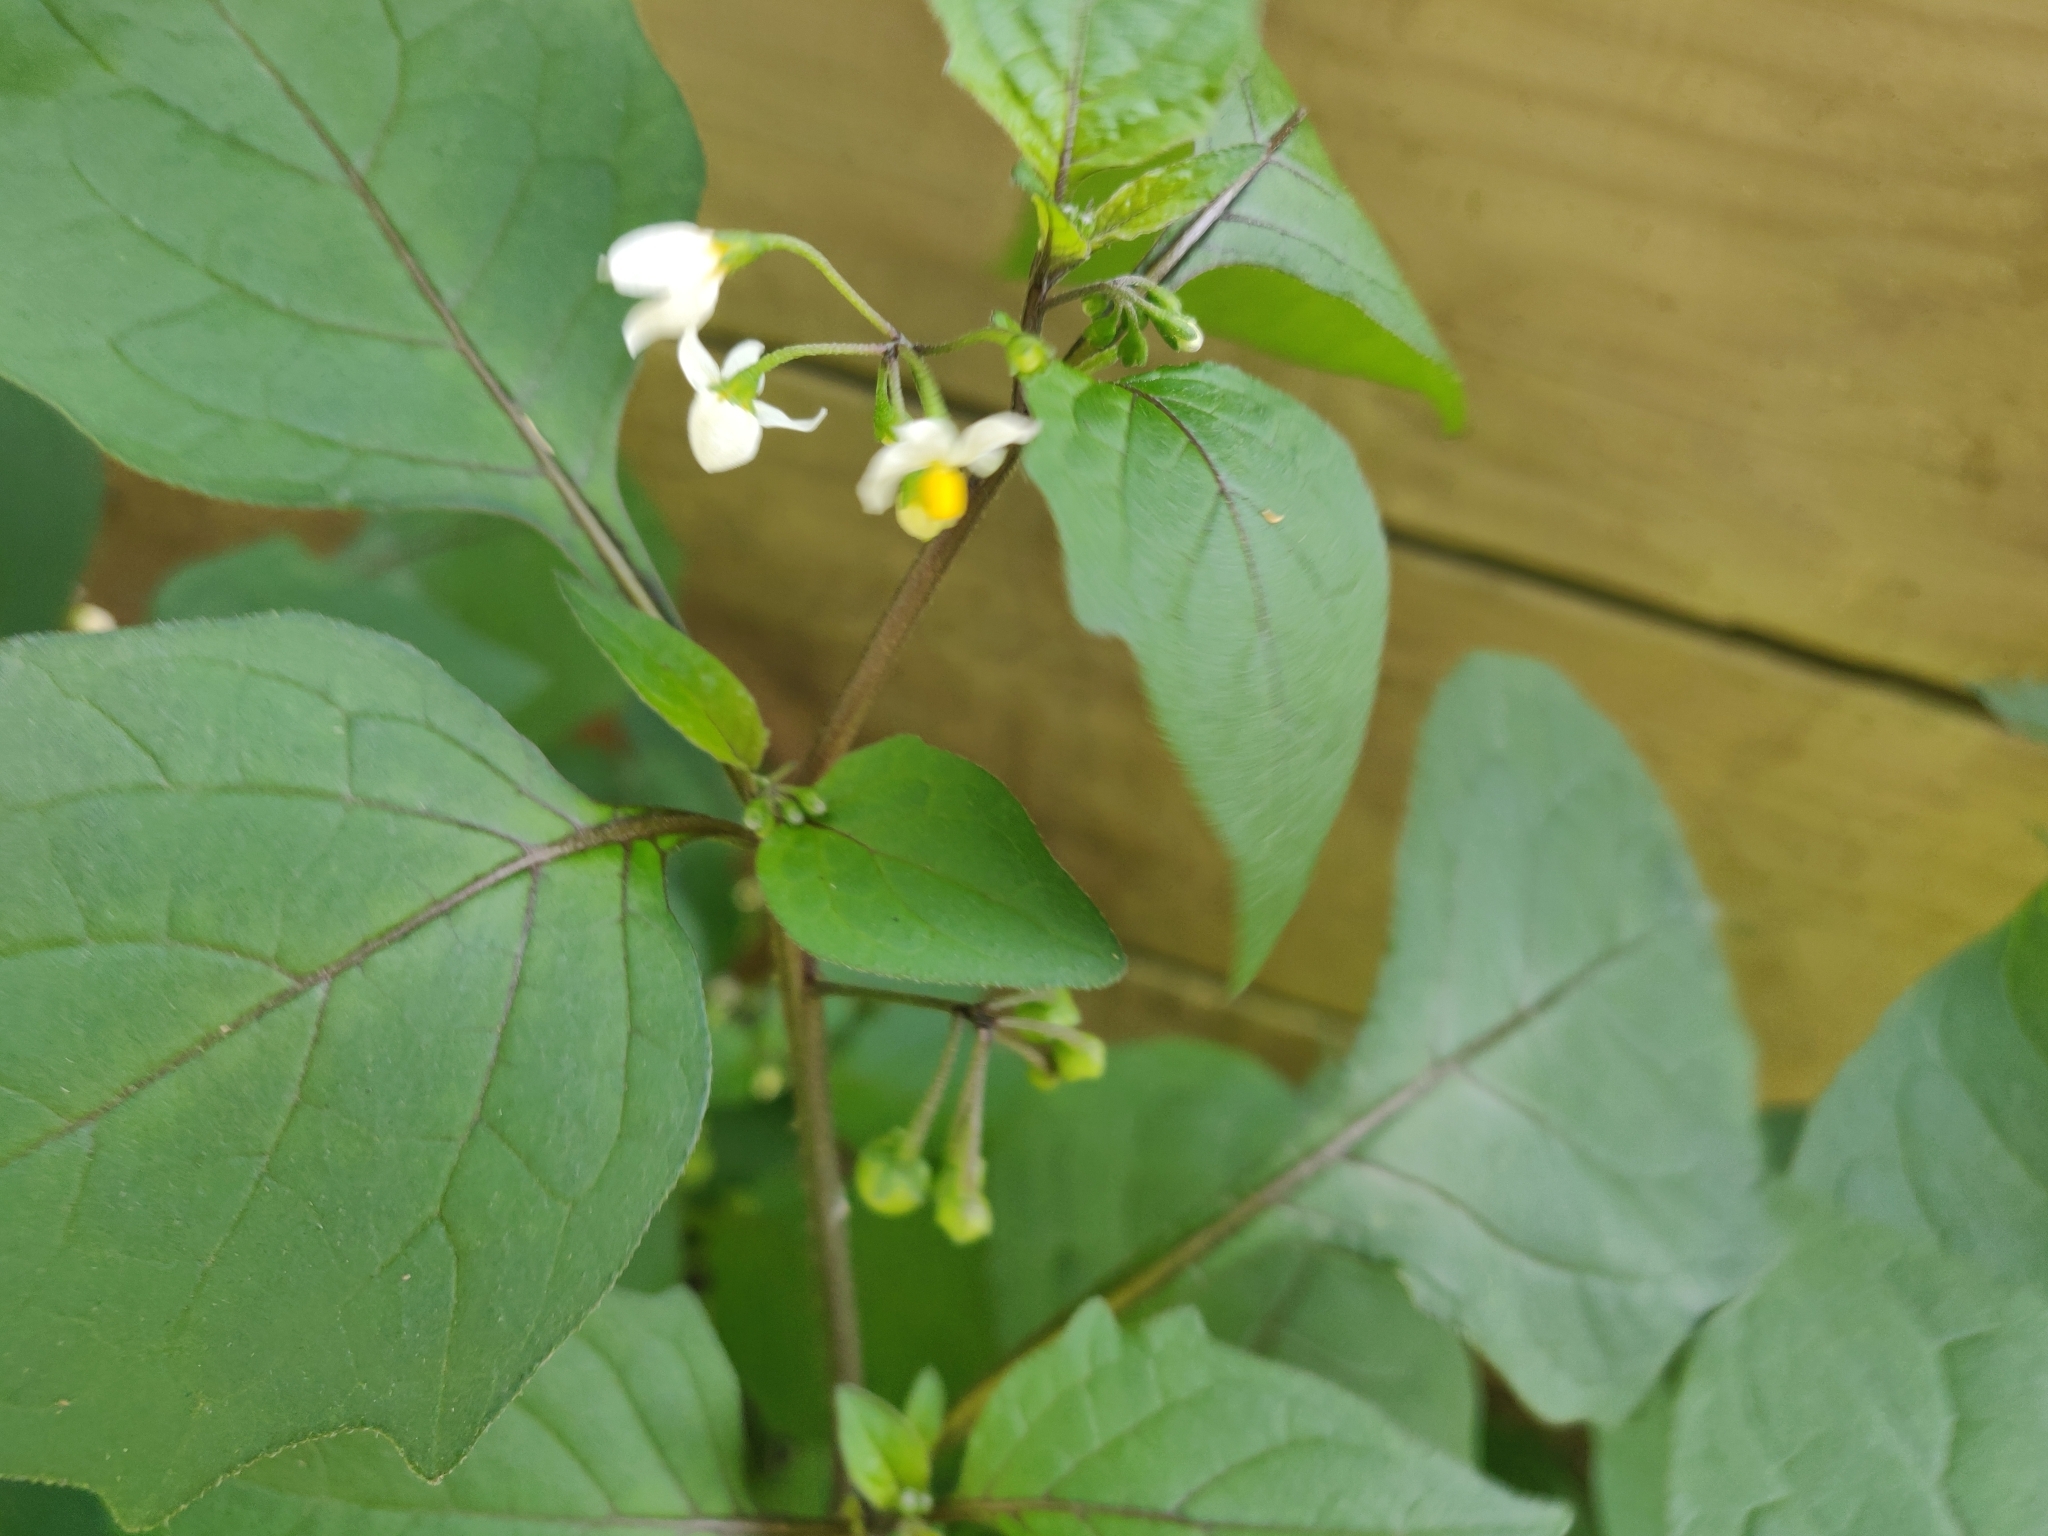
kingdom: Plantae
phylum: Tracheophyta
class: Magnoliopsida
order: Solanales
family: Solanaceae
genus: Solanum
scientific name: Solanum nigrum
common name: Black nightshade
